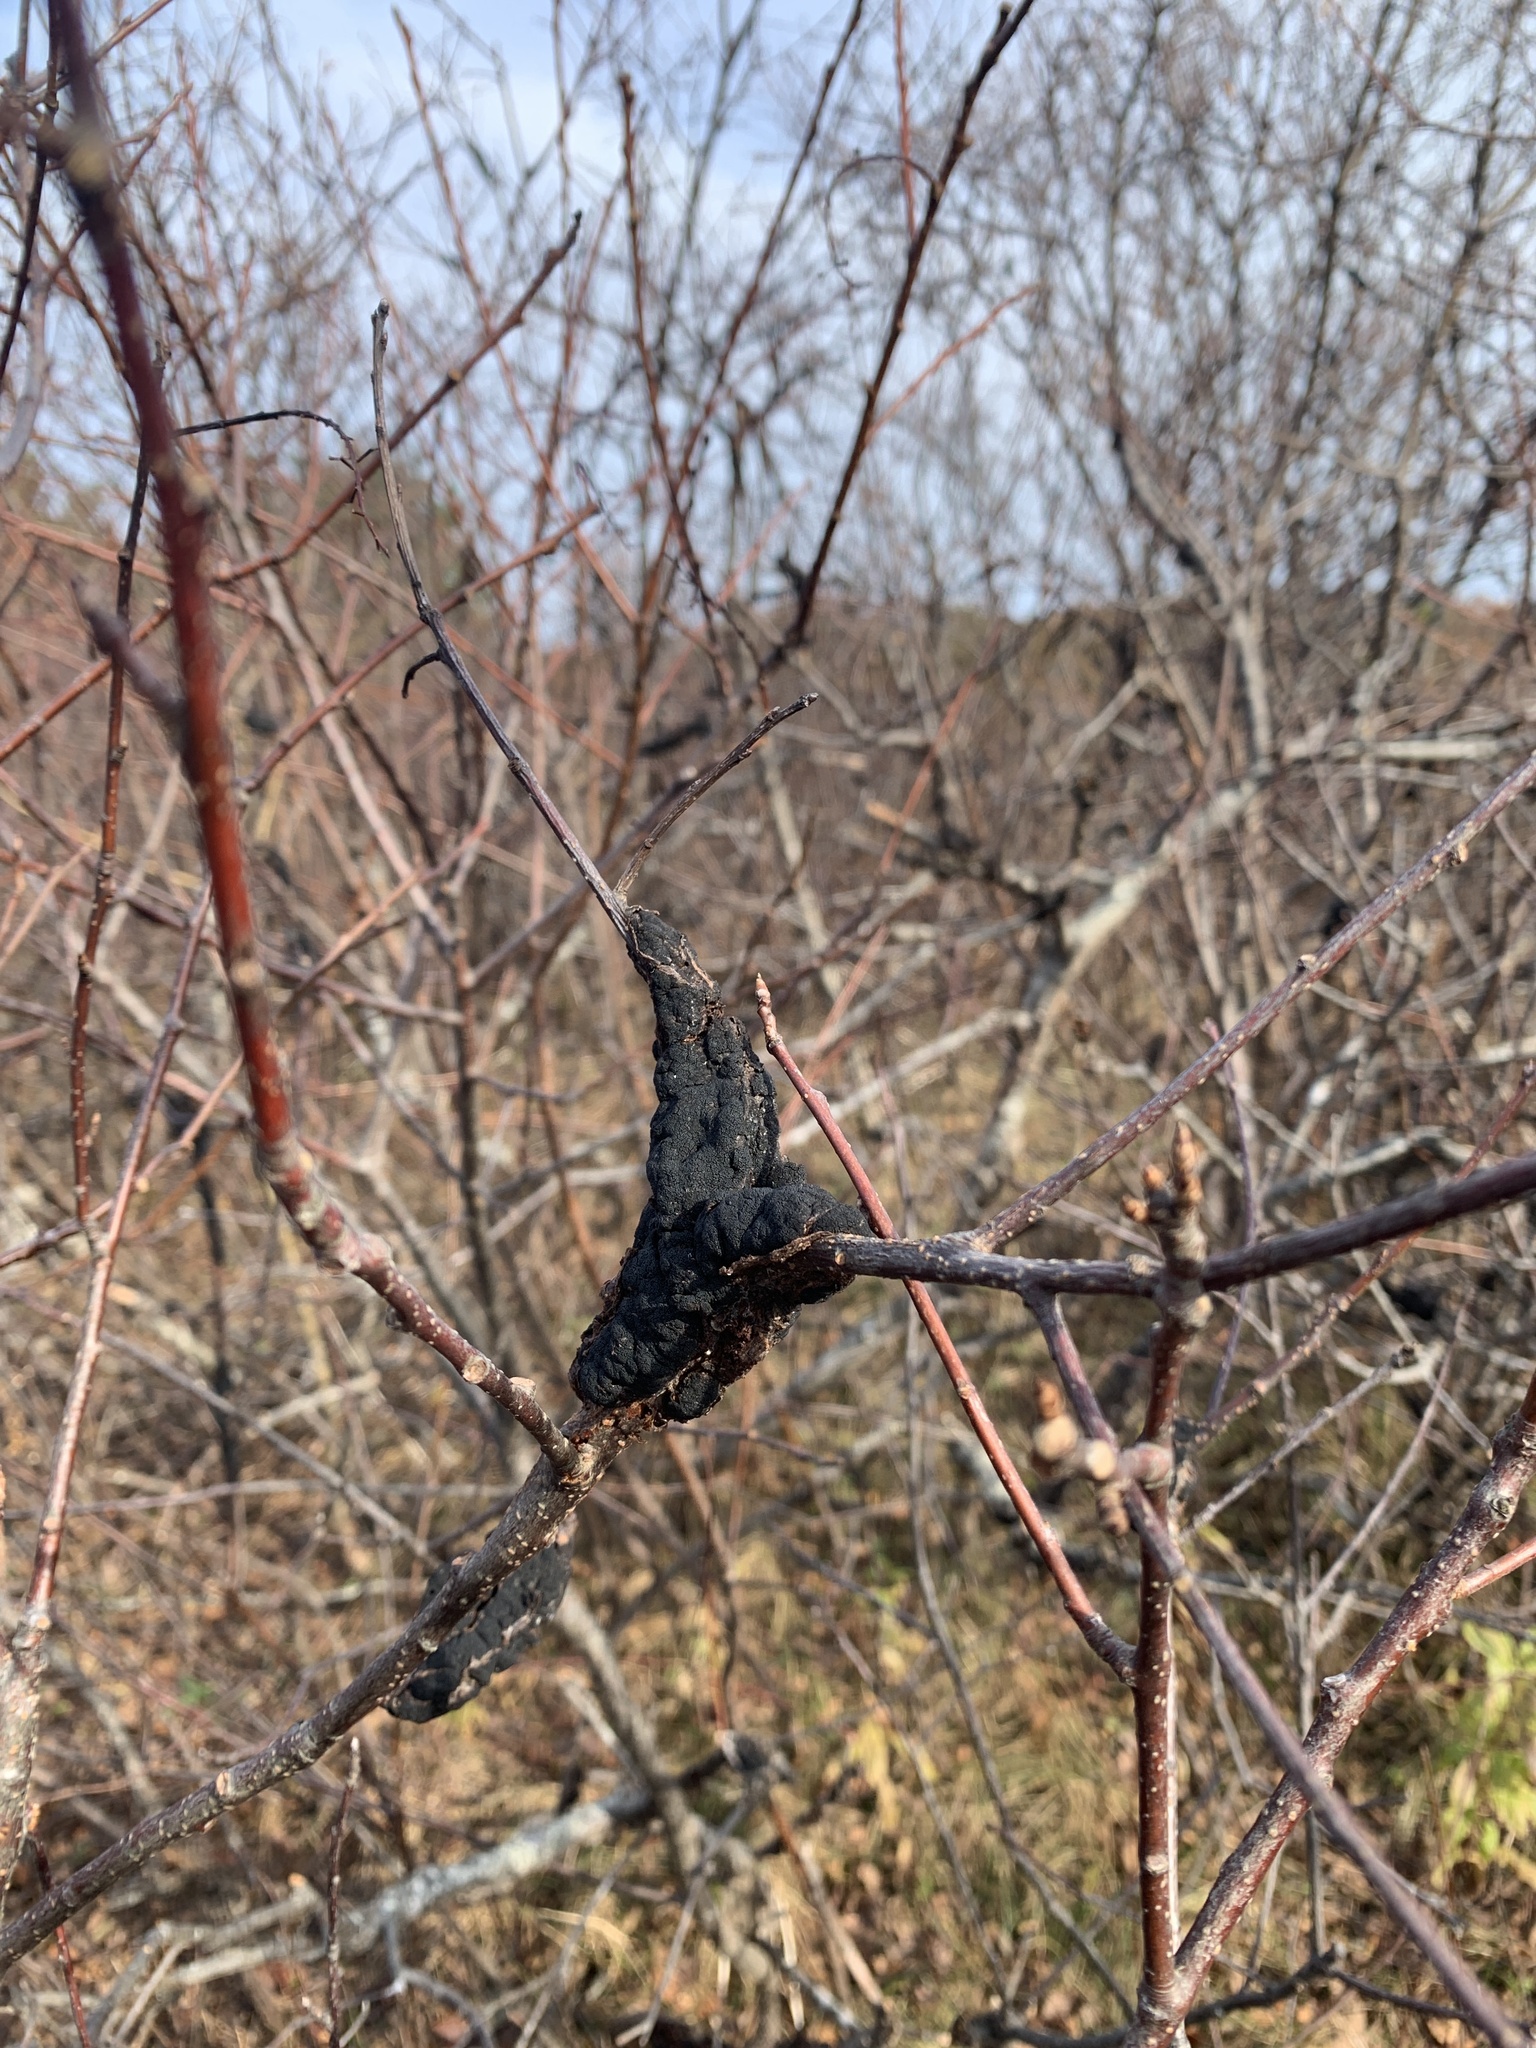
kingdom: Fungi
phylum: Ascomycota
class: Dothideomycetes
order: Venturiales
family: Venturiaceae
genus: Apiosporina
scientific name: Apiosporina morbosa
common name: Black knot
